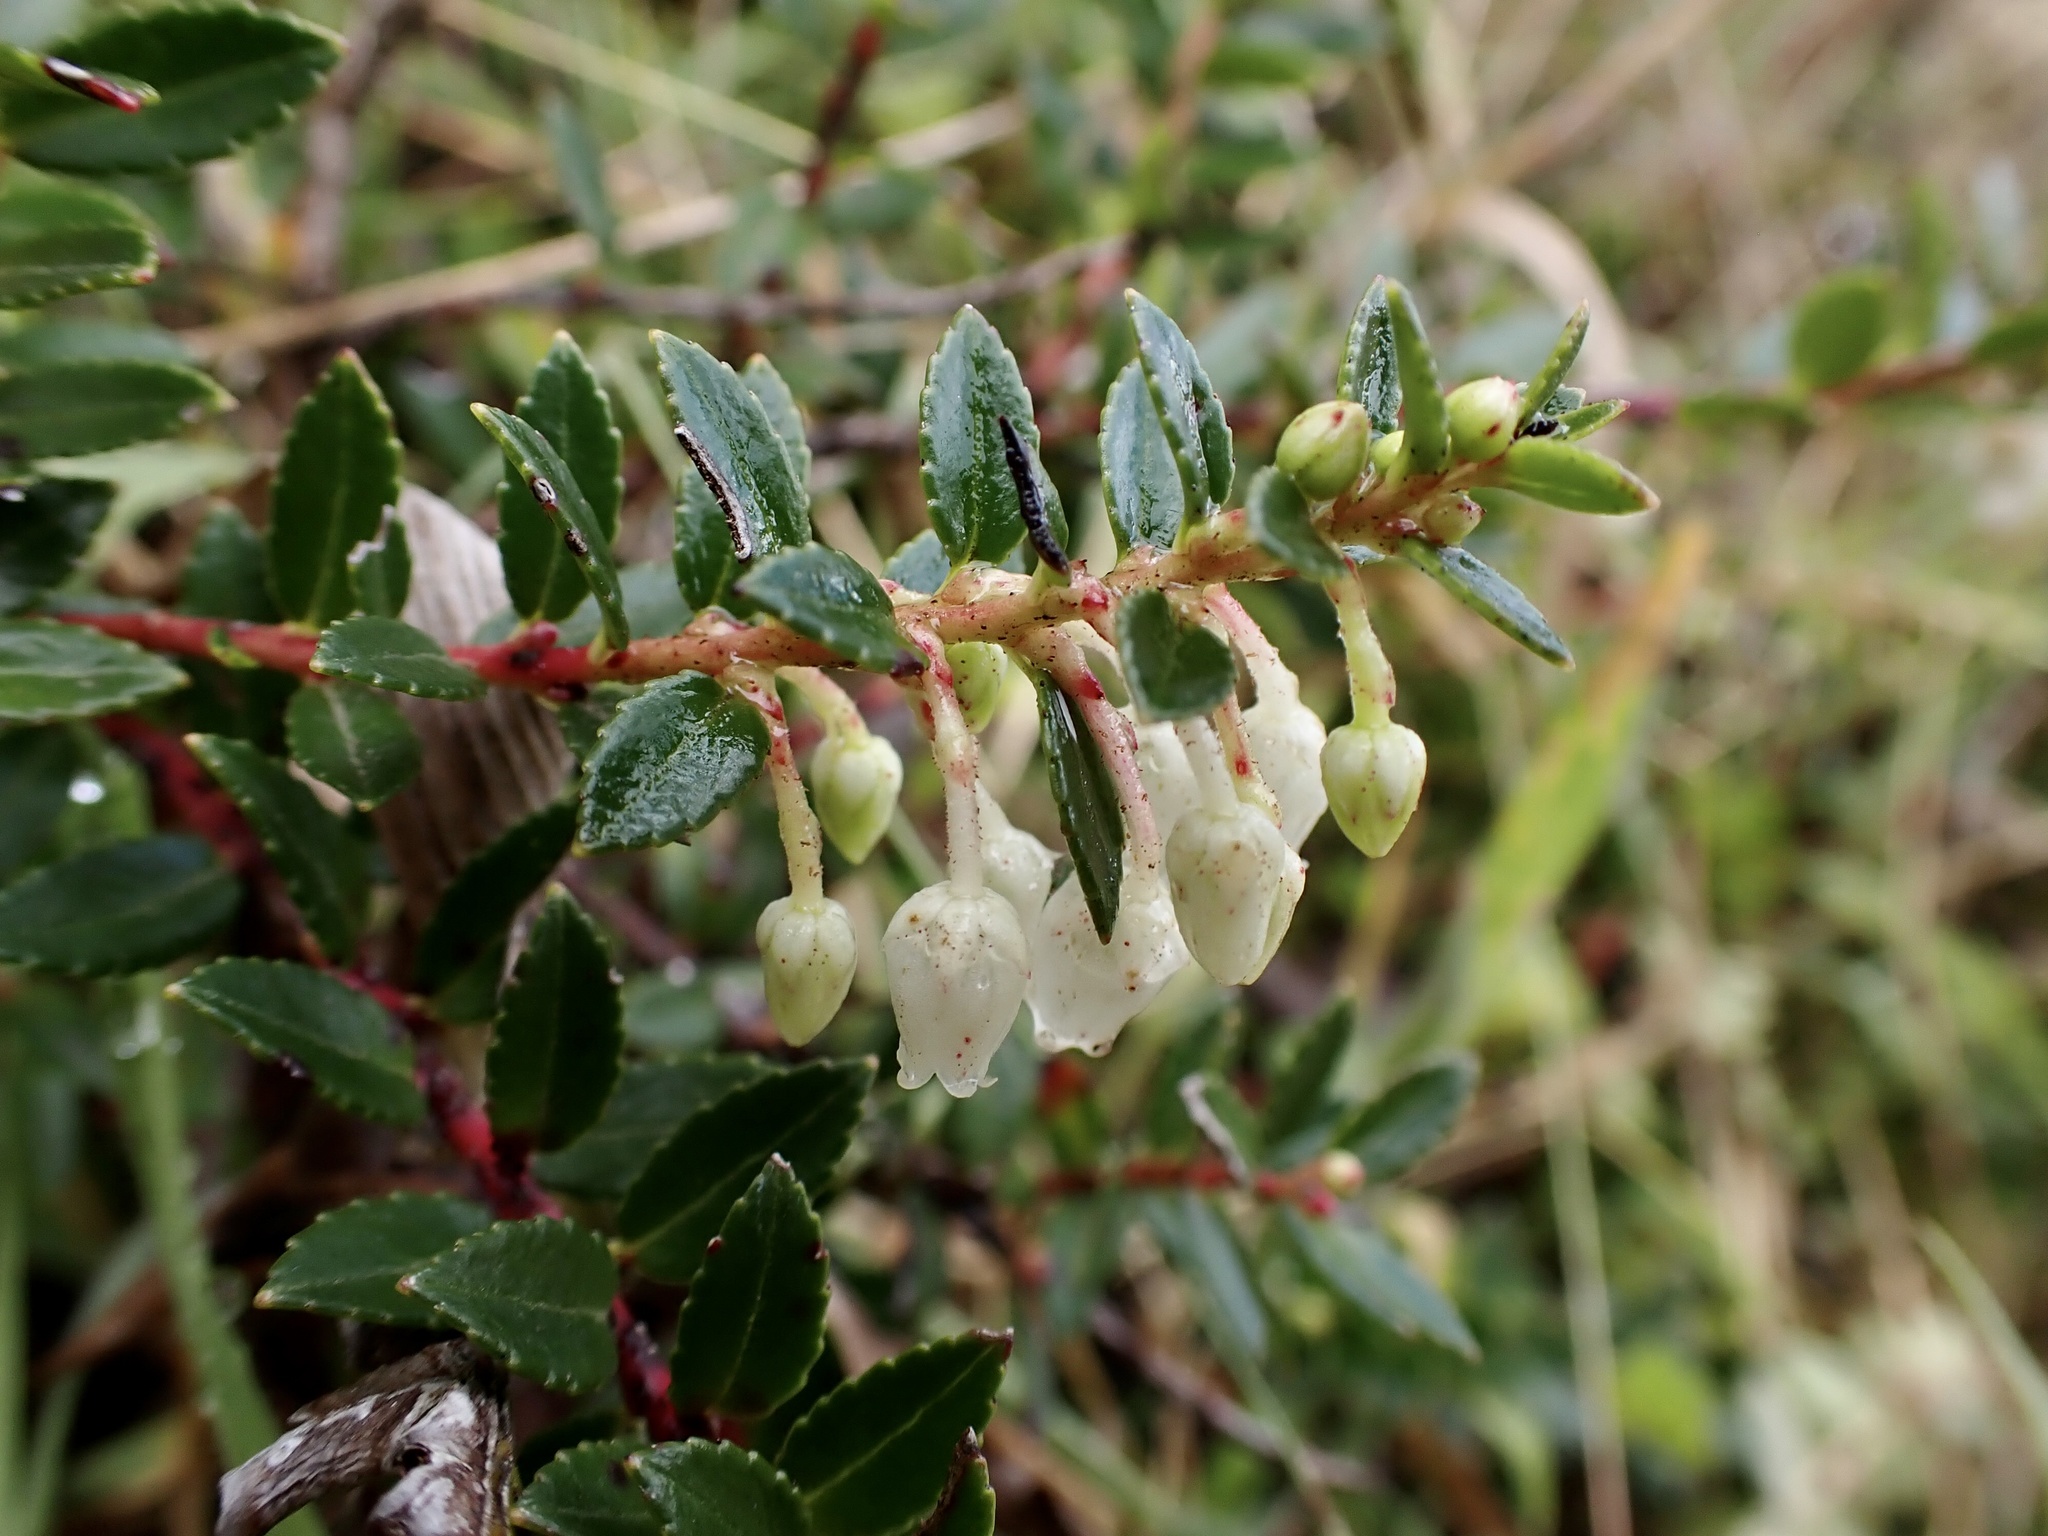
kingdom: Plantae
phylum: Tracheophyta
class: Magnoliopsida
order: Ericales
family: Ericaceae
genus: Gaultheria
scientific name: Gaultheria myrsinoides
